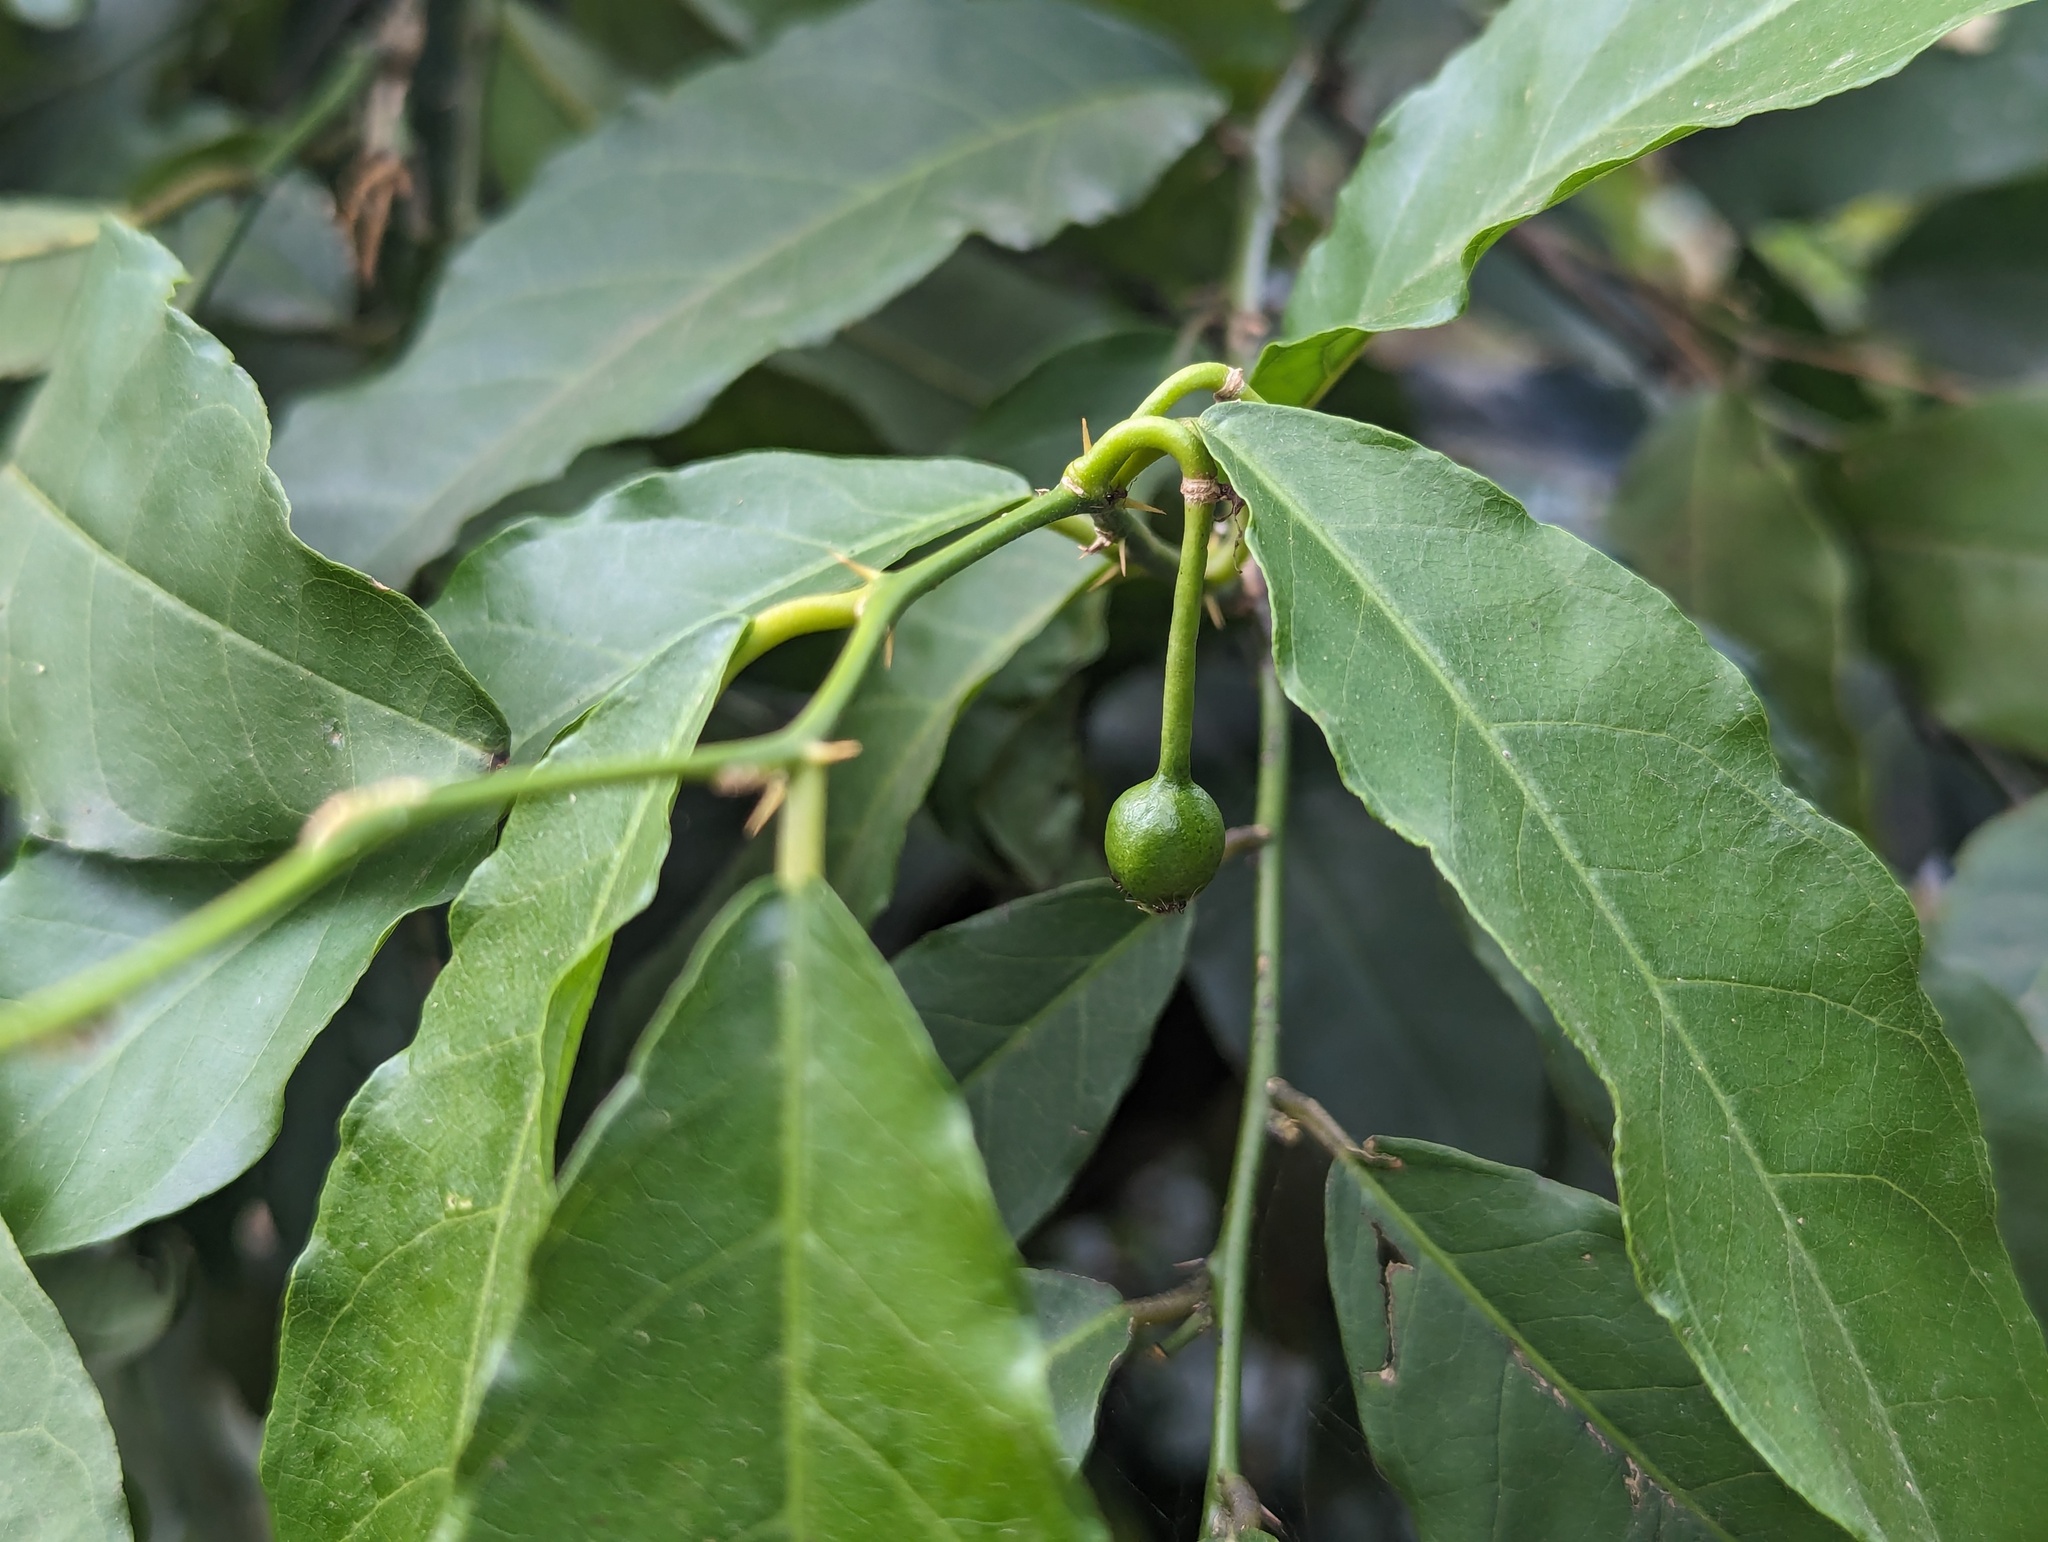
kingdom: Plantae
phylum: Tracheophyta
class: Magnoliopsida
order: Brassicales
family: Capparaceae
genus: Capparis
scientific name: Capparis henryi
